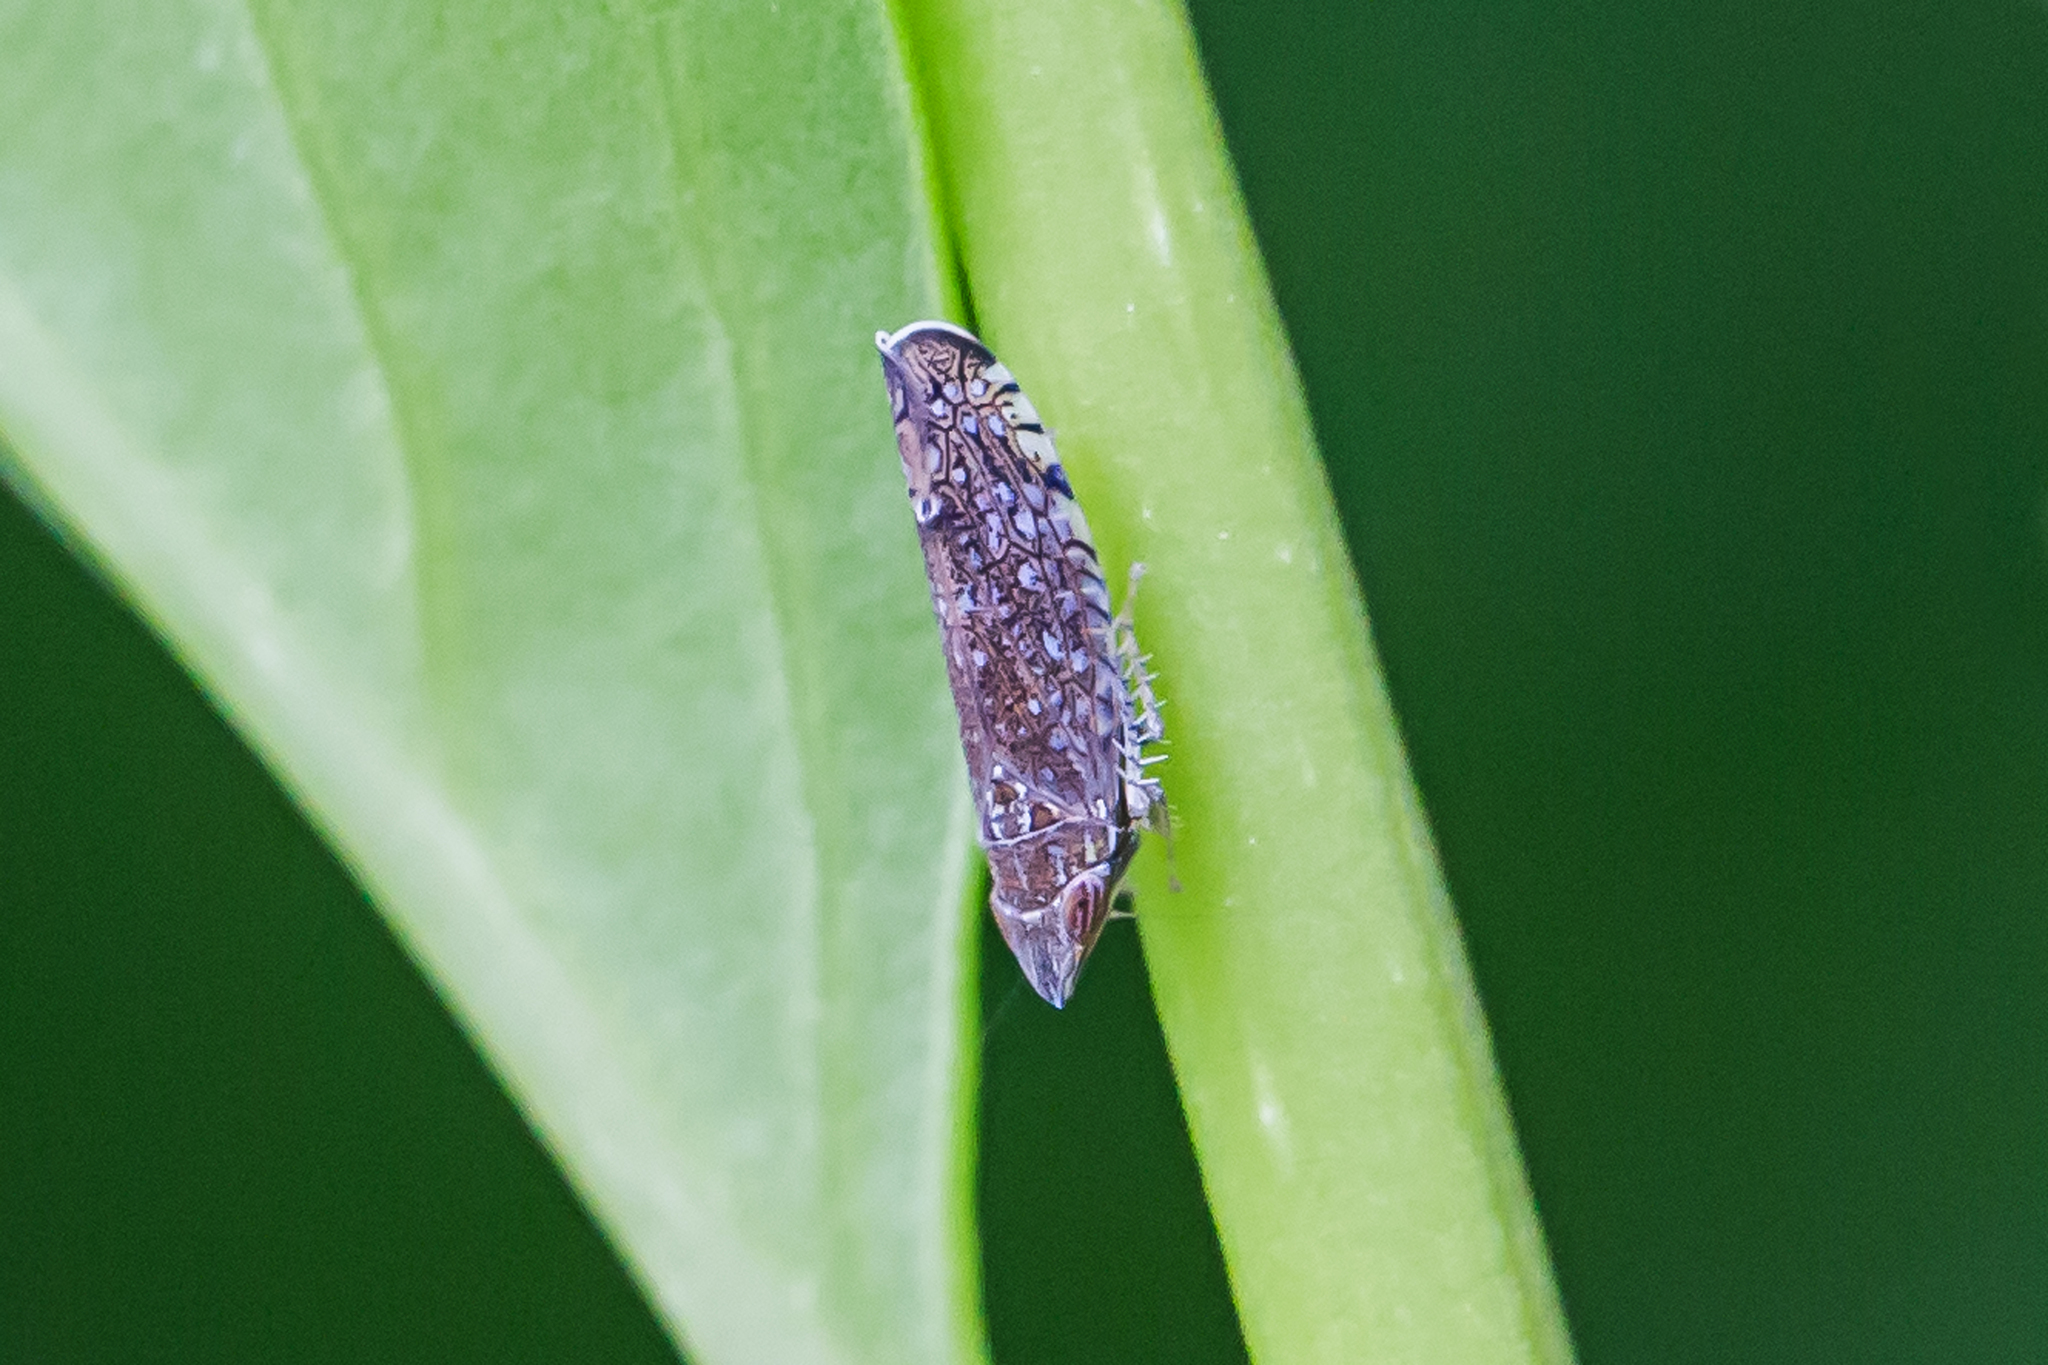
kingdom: Animalia
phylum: Arthropoda
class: Insecta
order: Hemiptera
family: Cicadellidae
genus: Scaphytopius
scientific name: Scaphytopius acutus
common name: The sharp-nosed leafhopper
